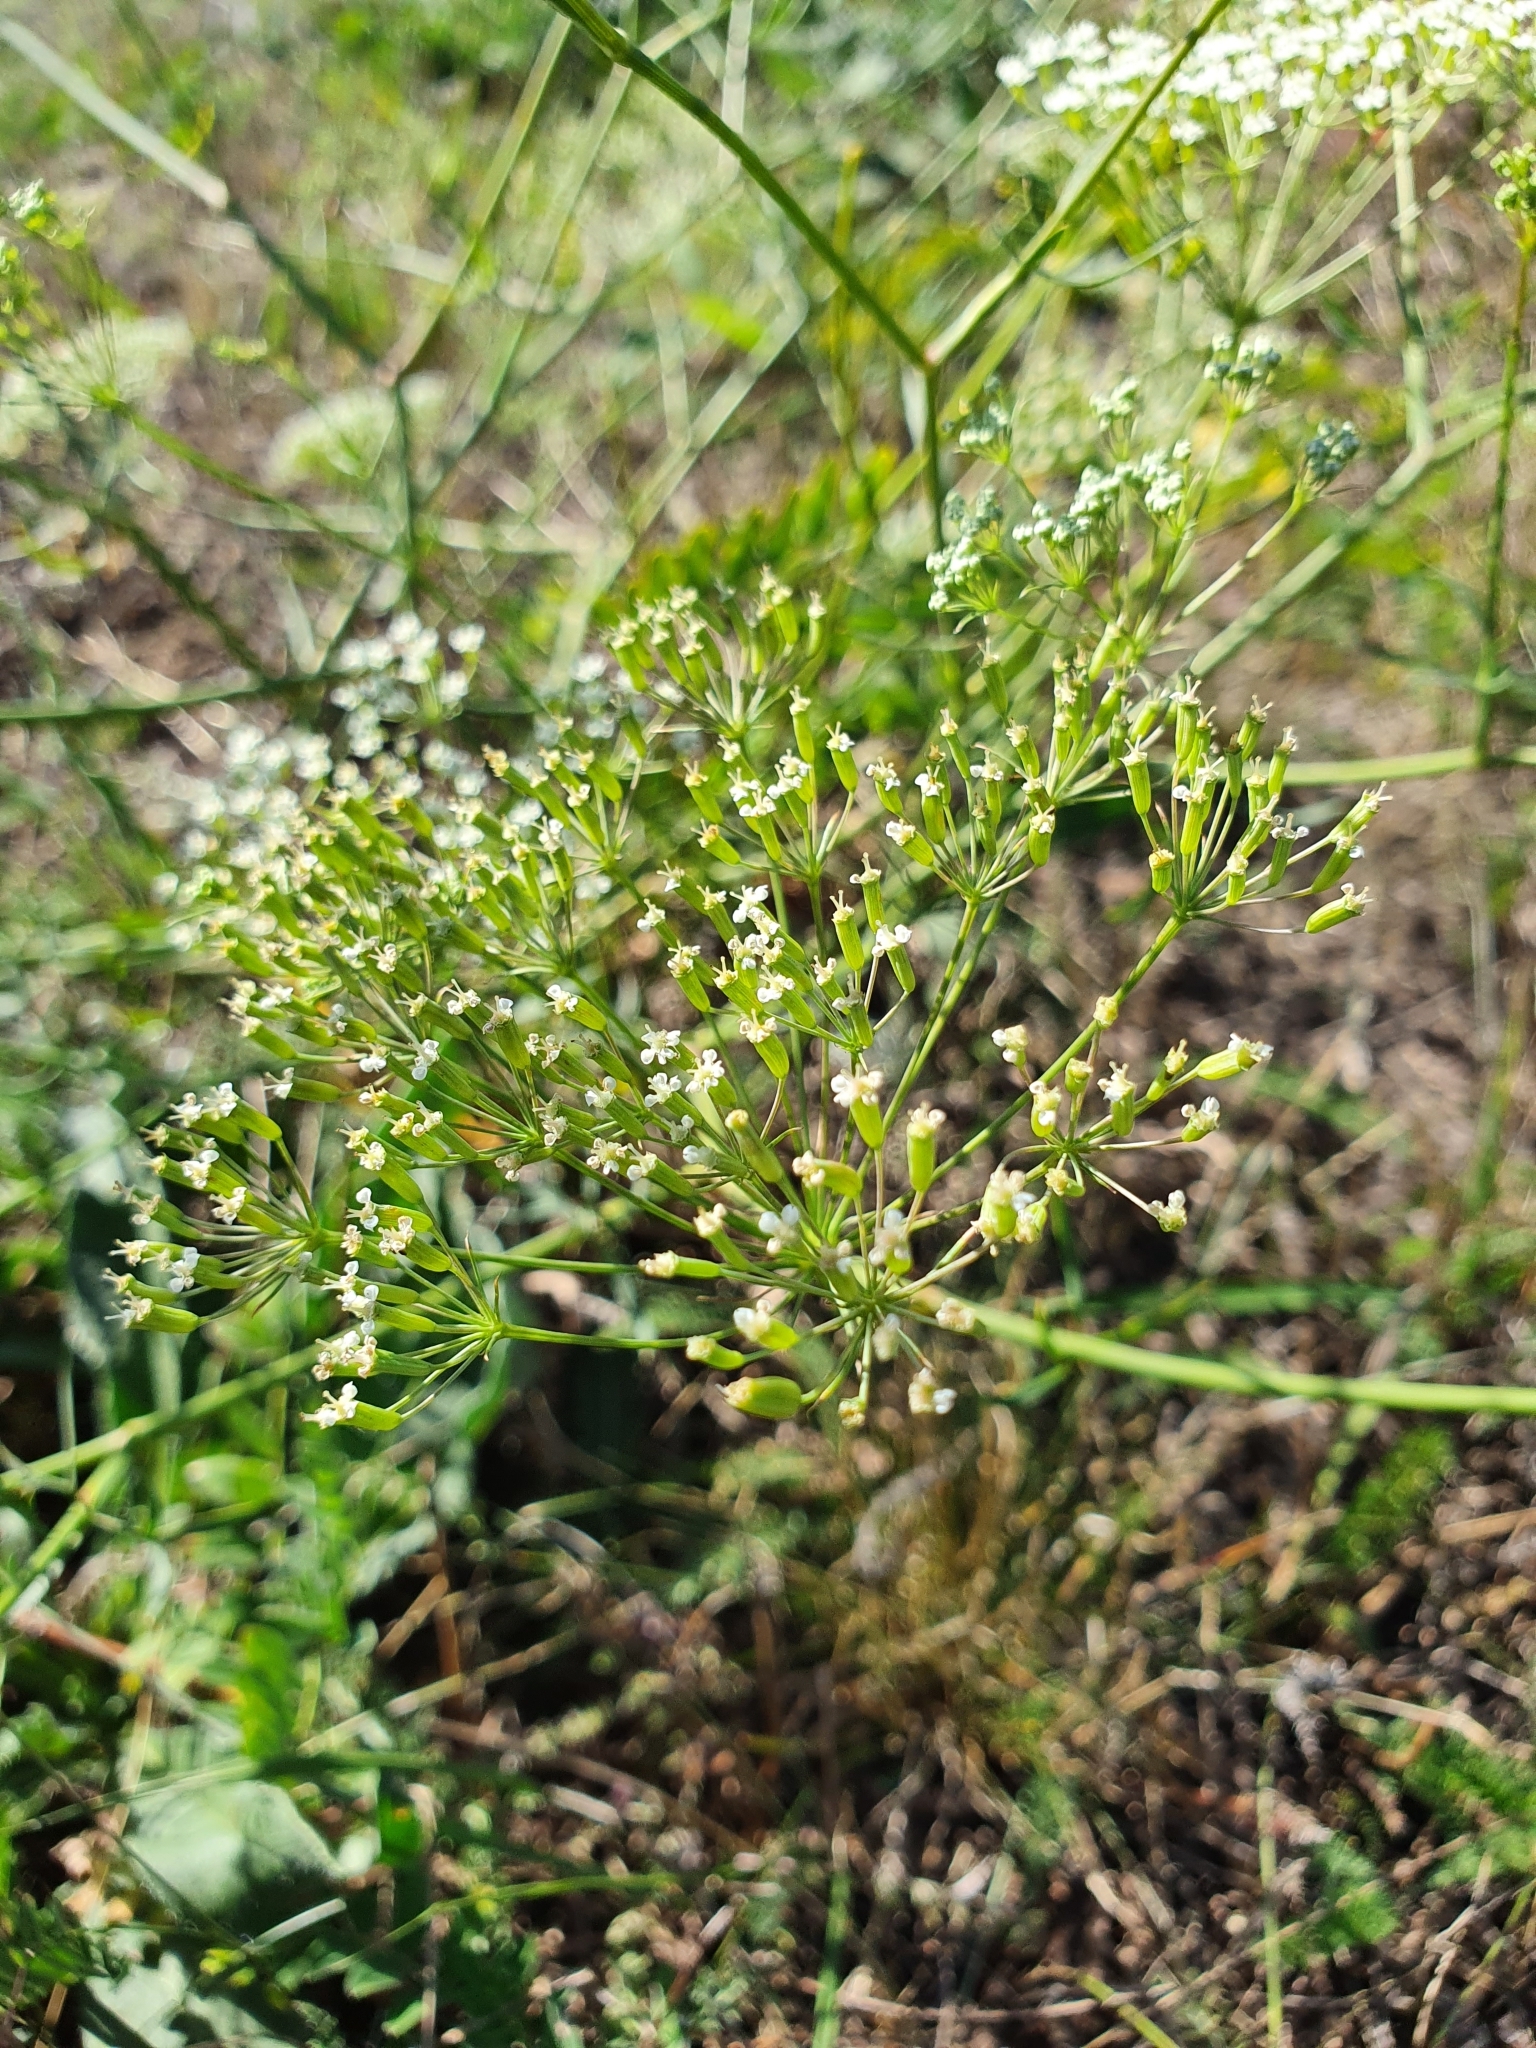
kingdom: Plantae
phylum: Tracheophyta
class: Magnoliopsida
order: Apiales
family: Apiaceae
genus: Falcaria
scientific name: Falcaria vulgaris
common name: Longleaf
